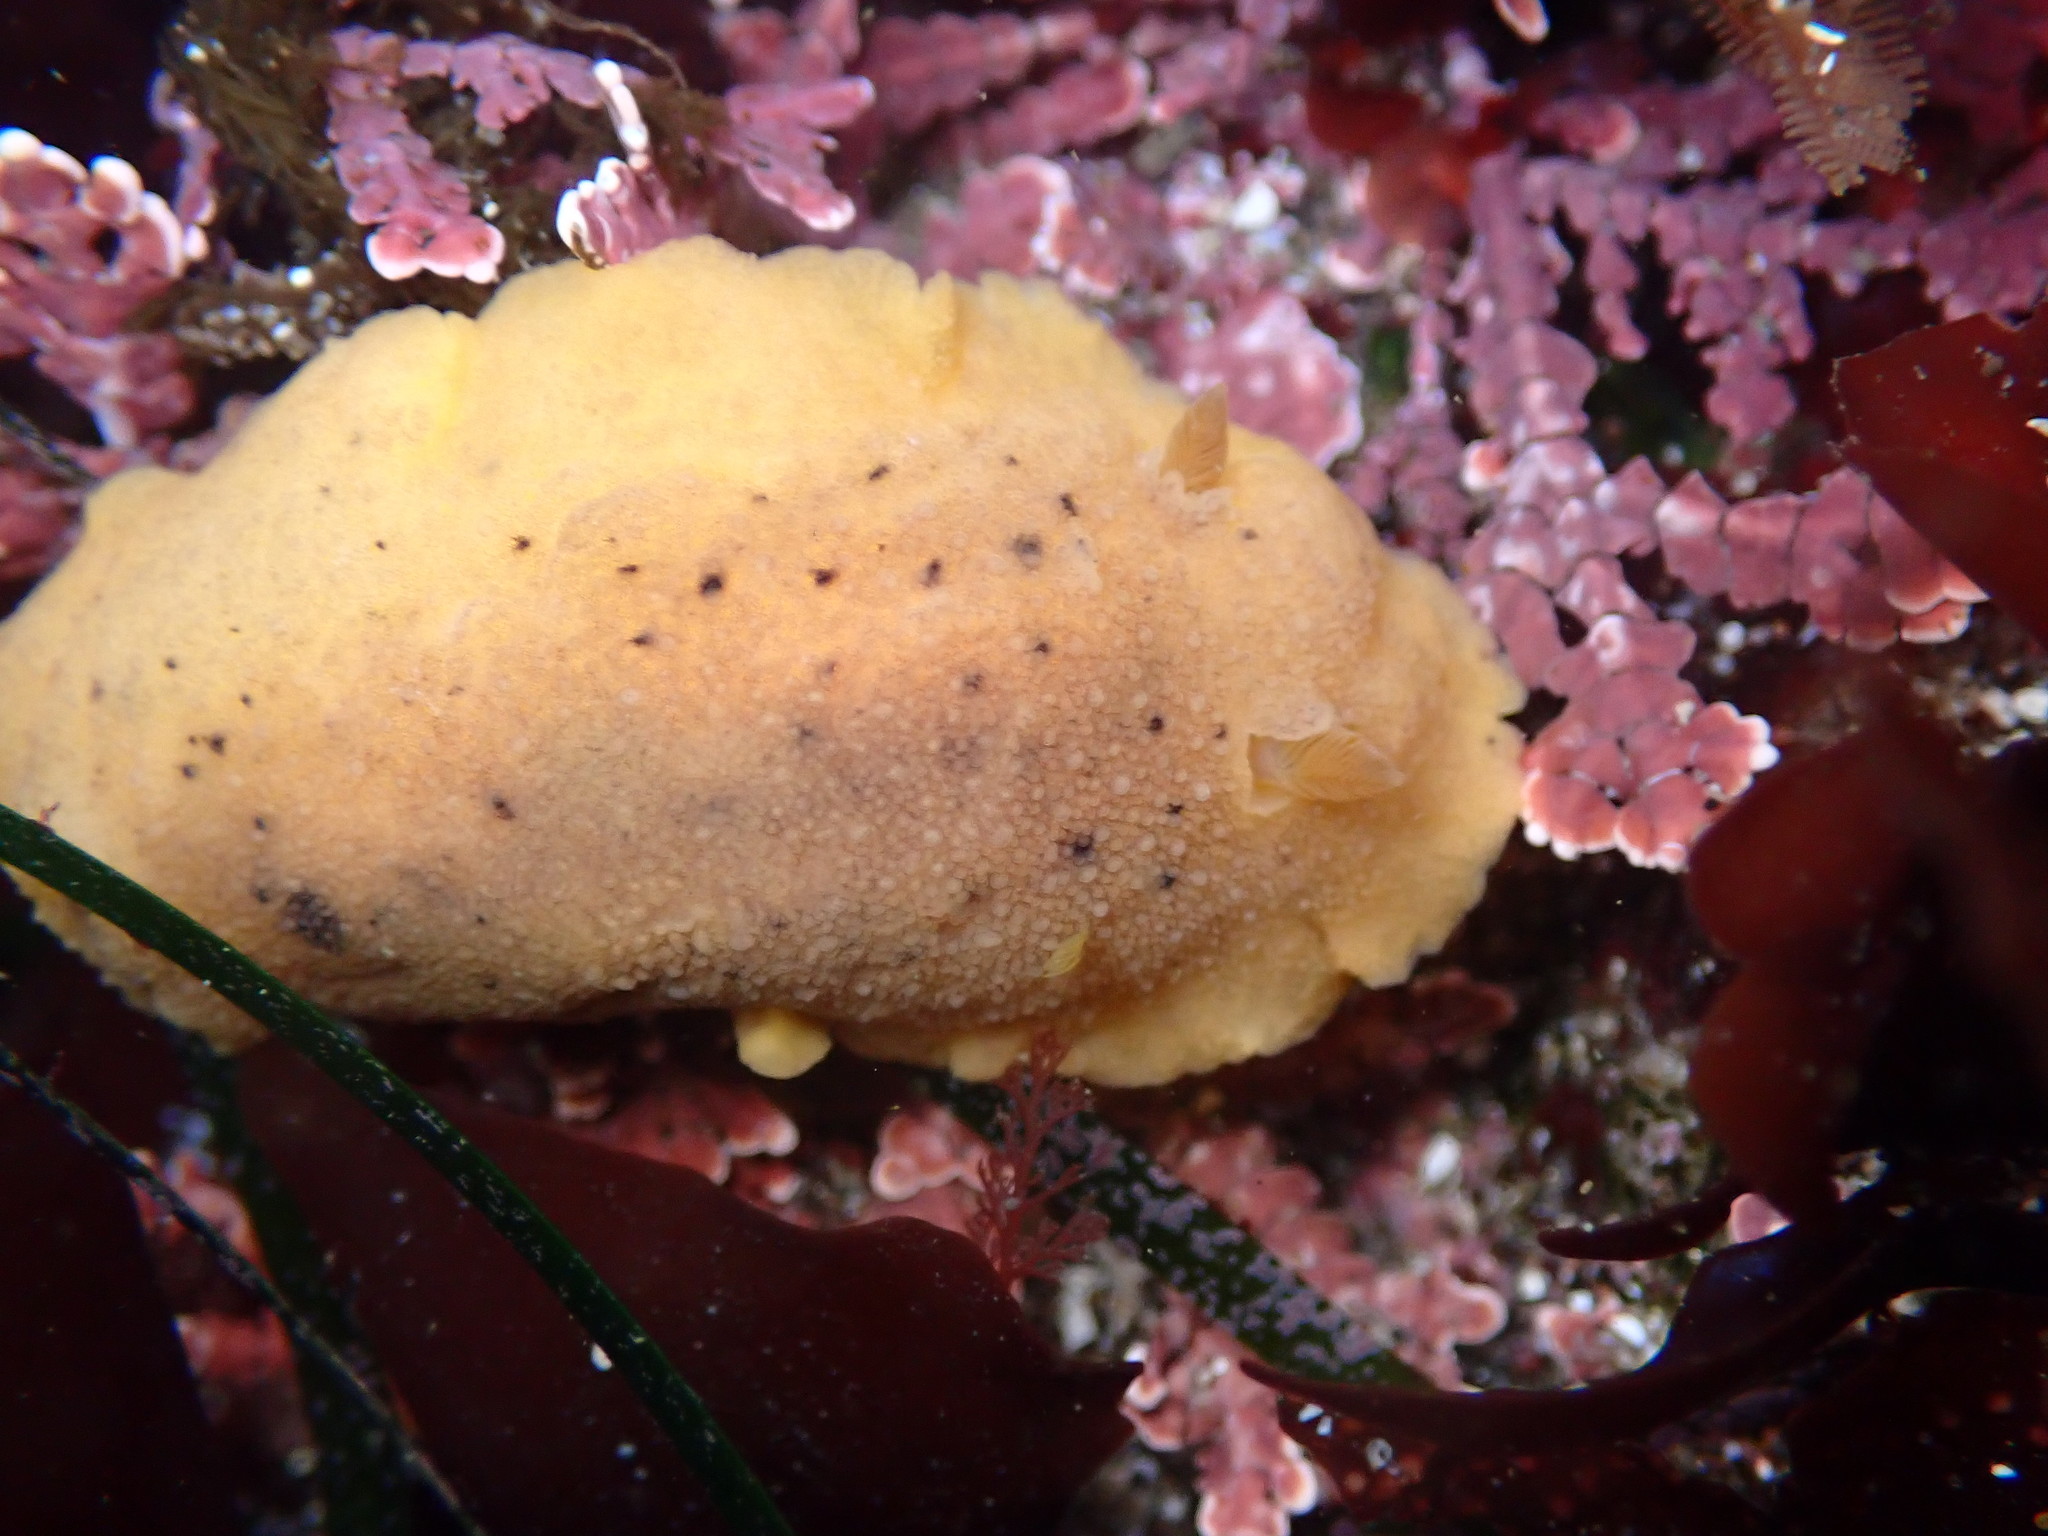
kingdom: Animalia
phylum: Mollusca
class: Gastropoda
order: Nudibranchia
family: Discodorididae
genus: Geitodoris
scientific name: Geitodoris heathi
